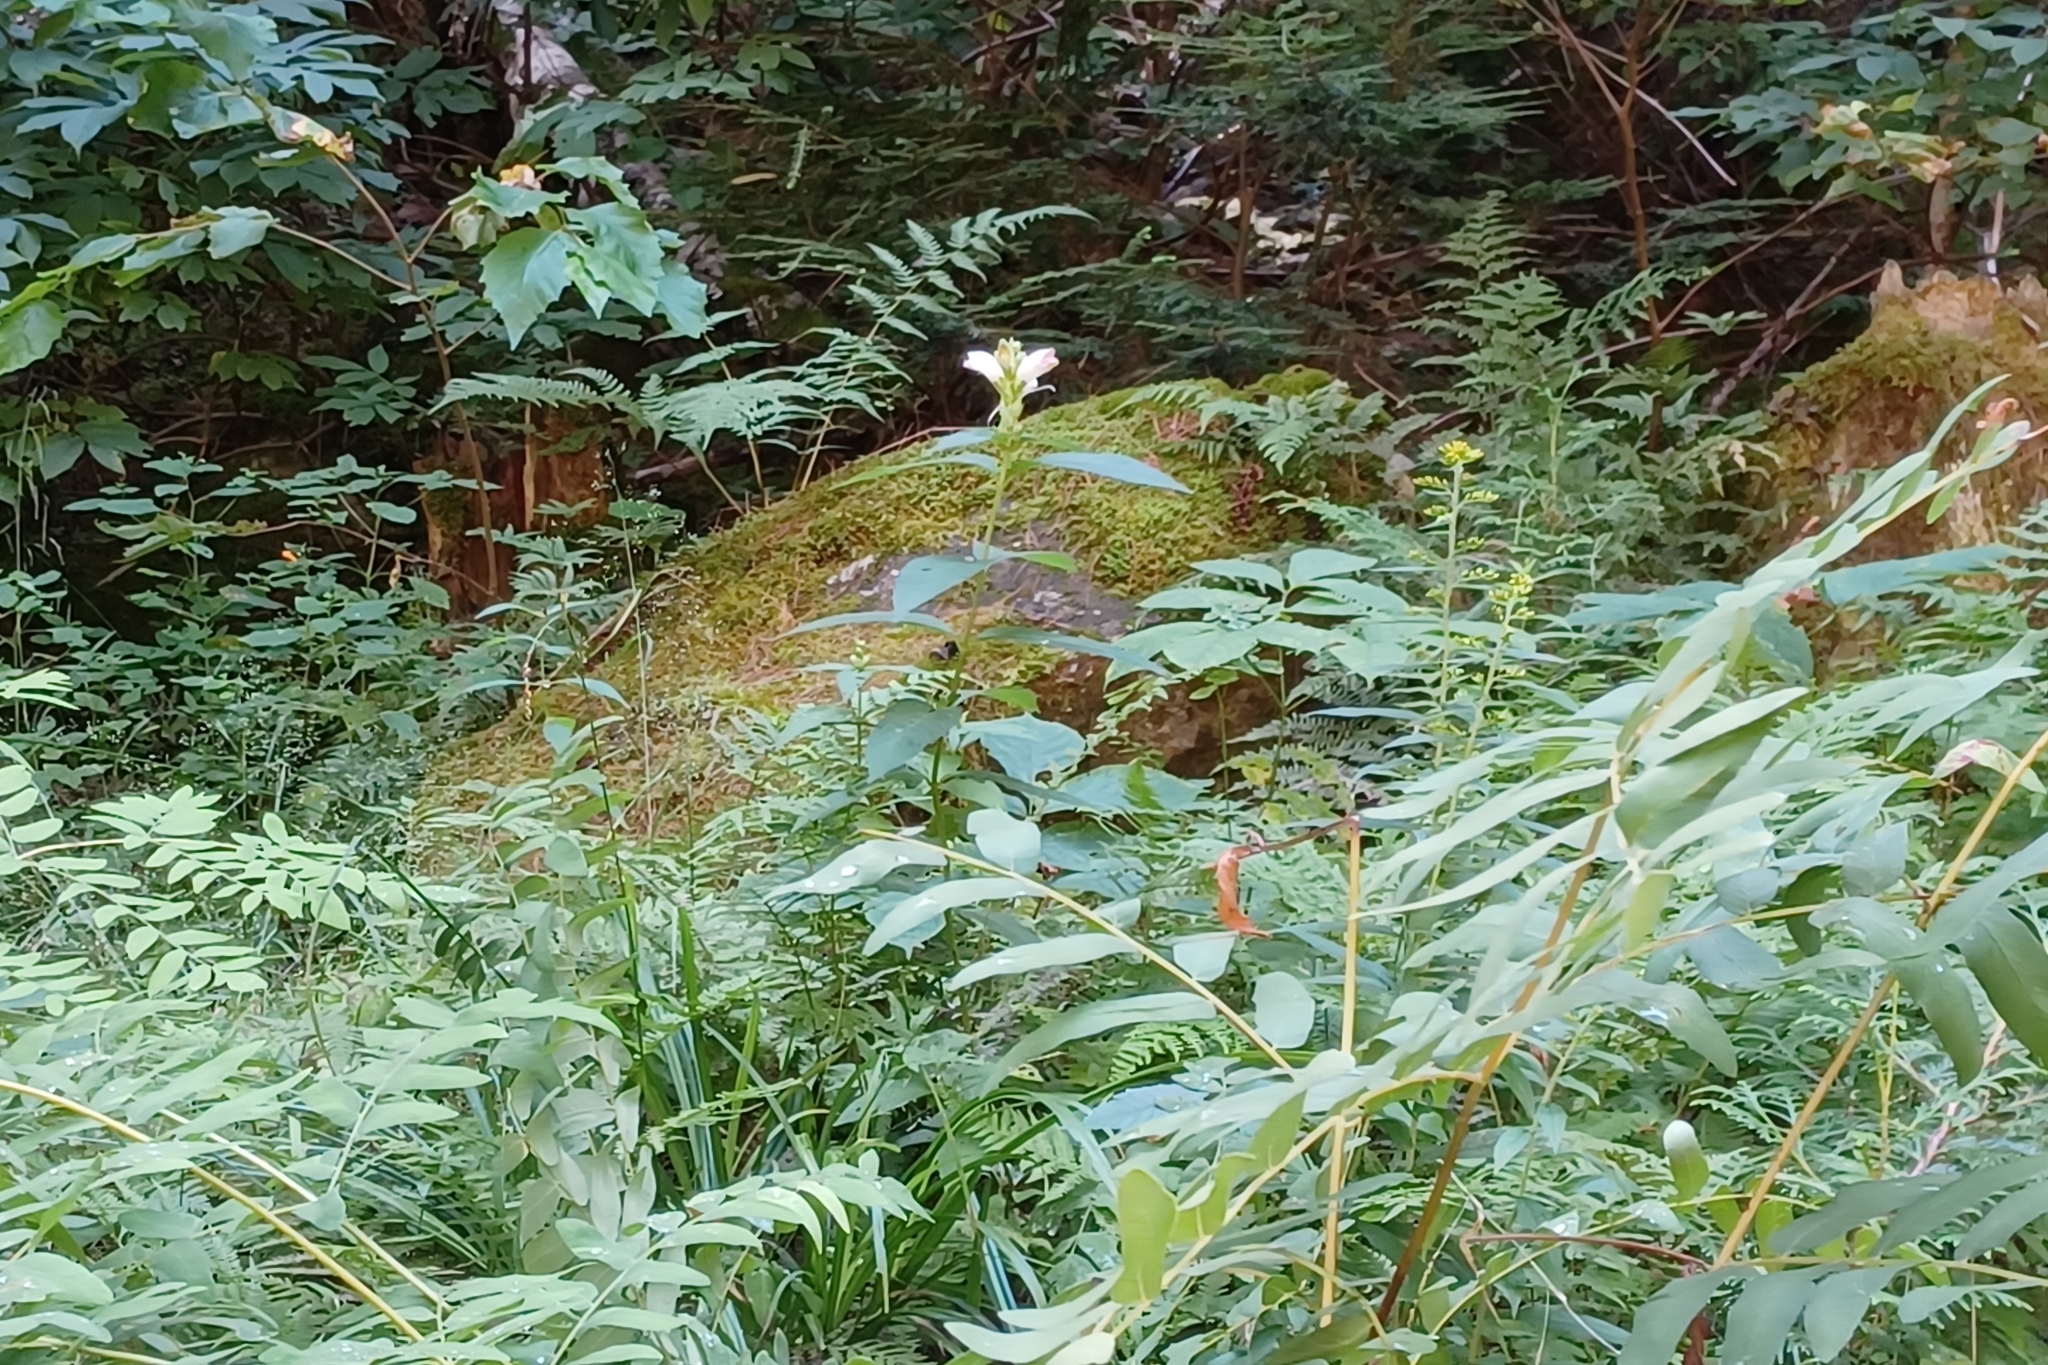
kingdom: Plantae
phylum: Tracheophyta
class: Magnoliopsida
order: Lamiales
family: Plantaginaceae
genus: Chelone
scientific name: Chelone glabra
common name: Snakehead
